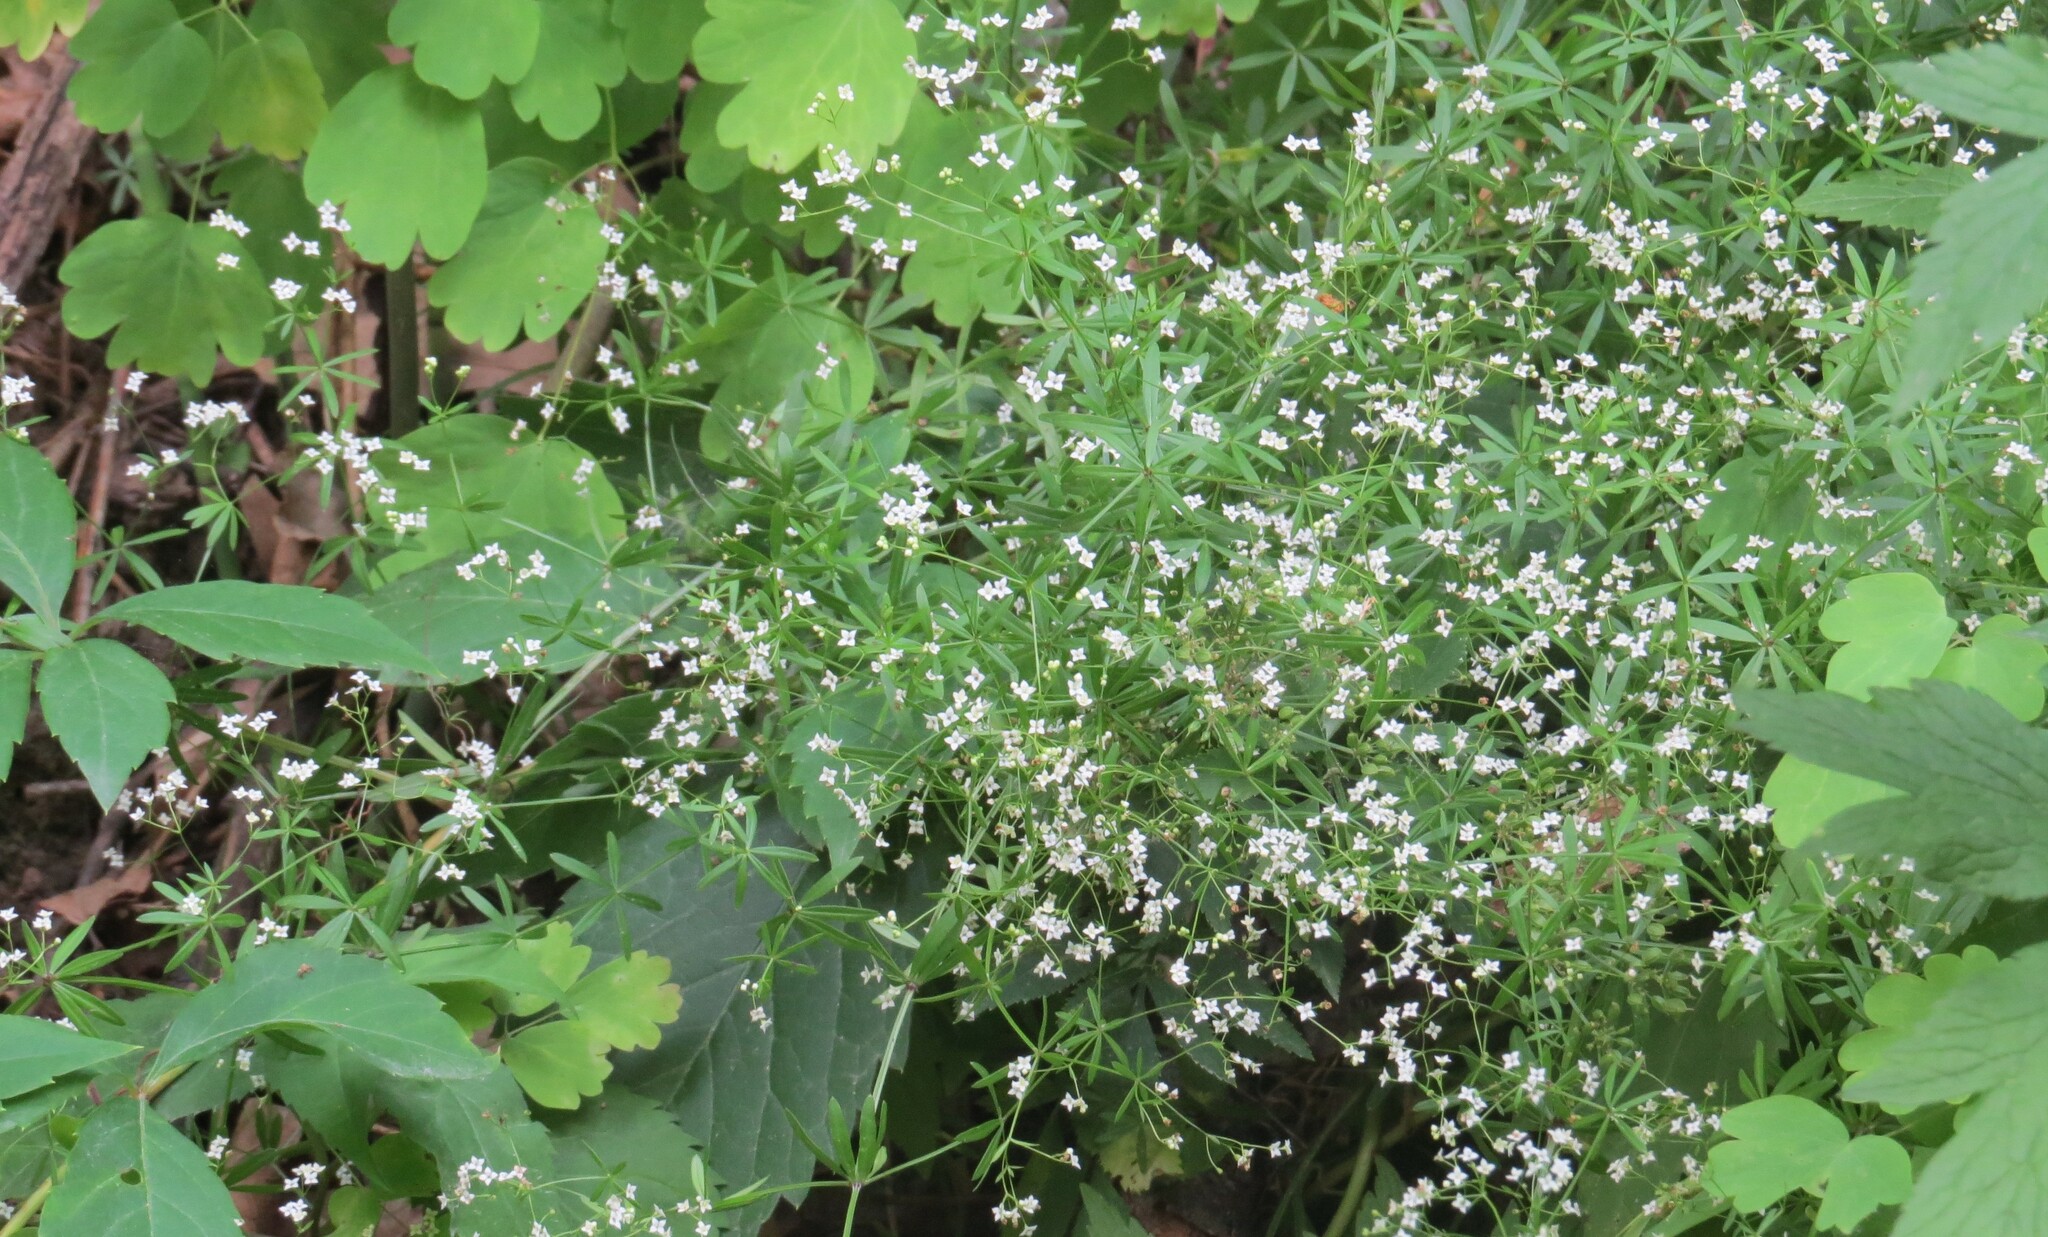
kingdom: Plantae
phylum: Tracheophyta
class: Magnoliopsida
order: Gentianales
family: Rubiaceae
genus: Galium
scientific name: Galium concinnum
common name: Shining bedstraw
